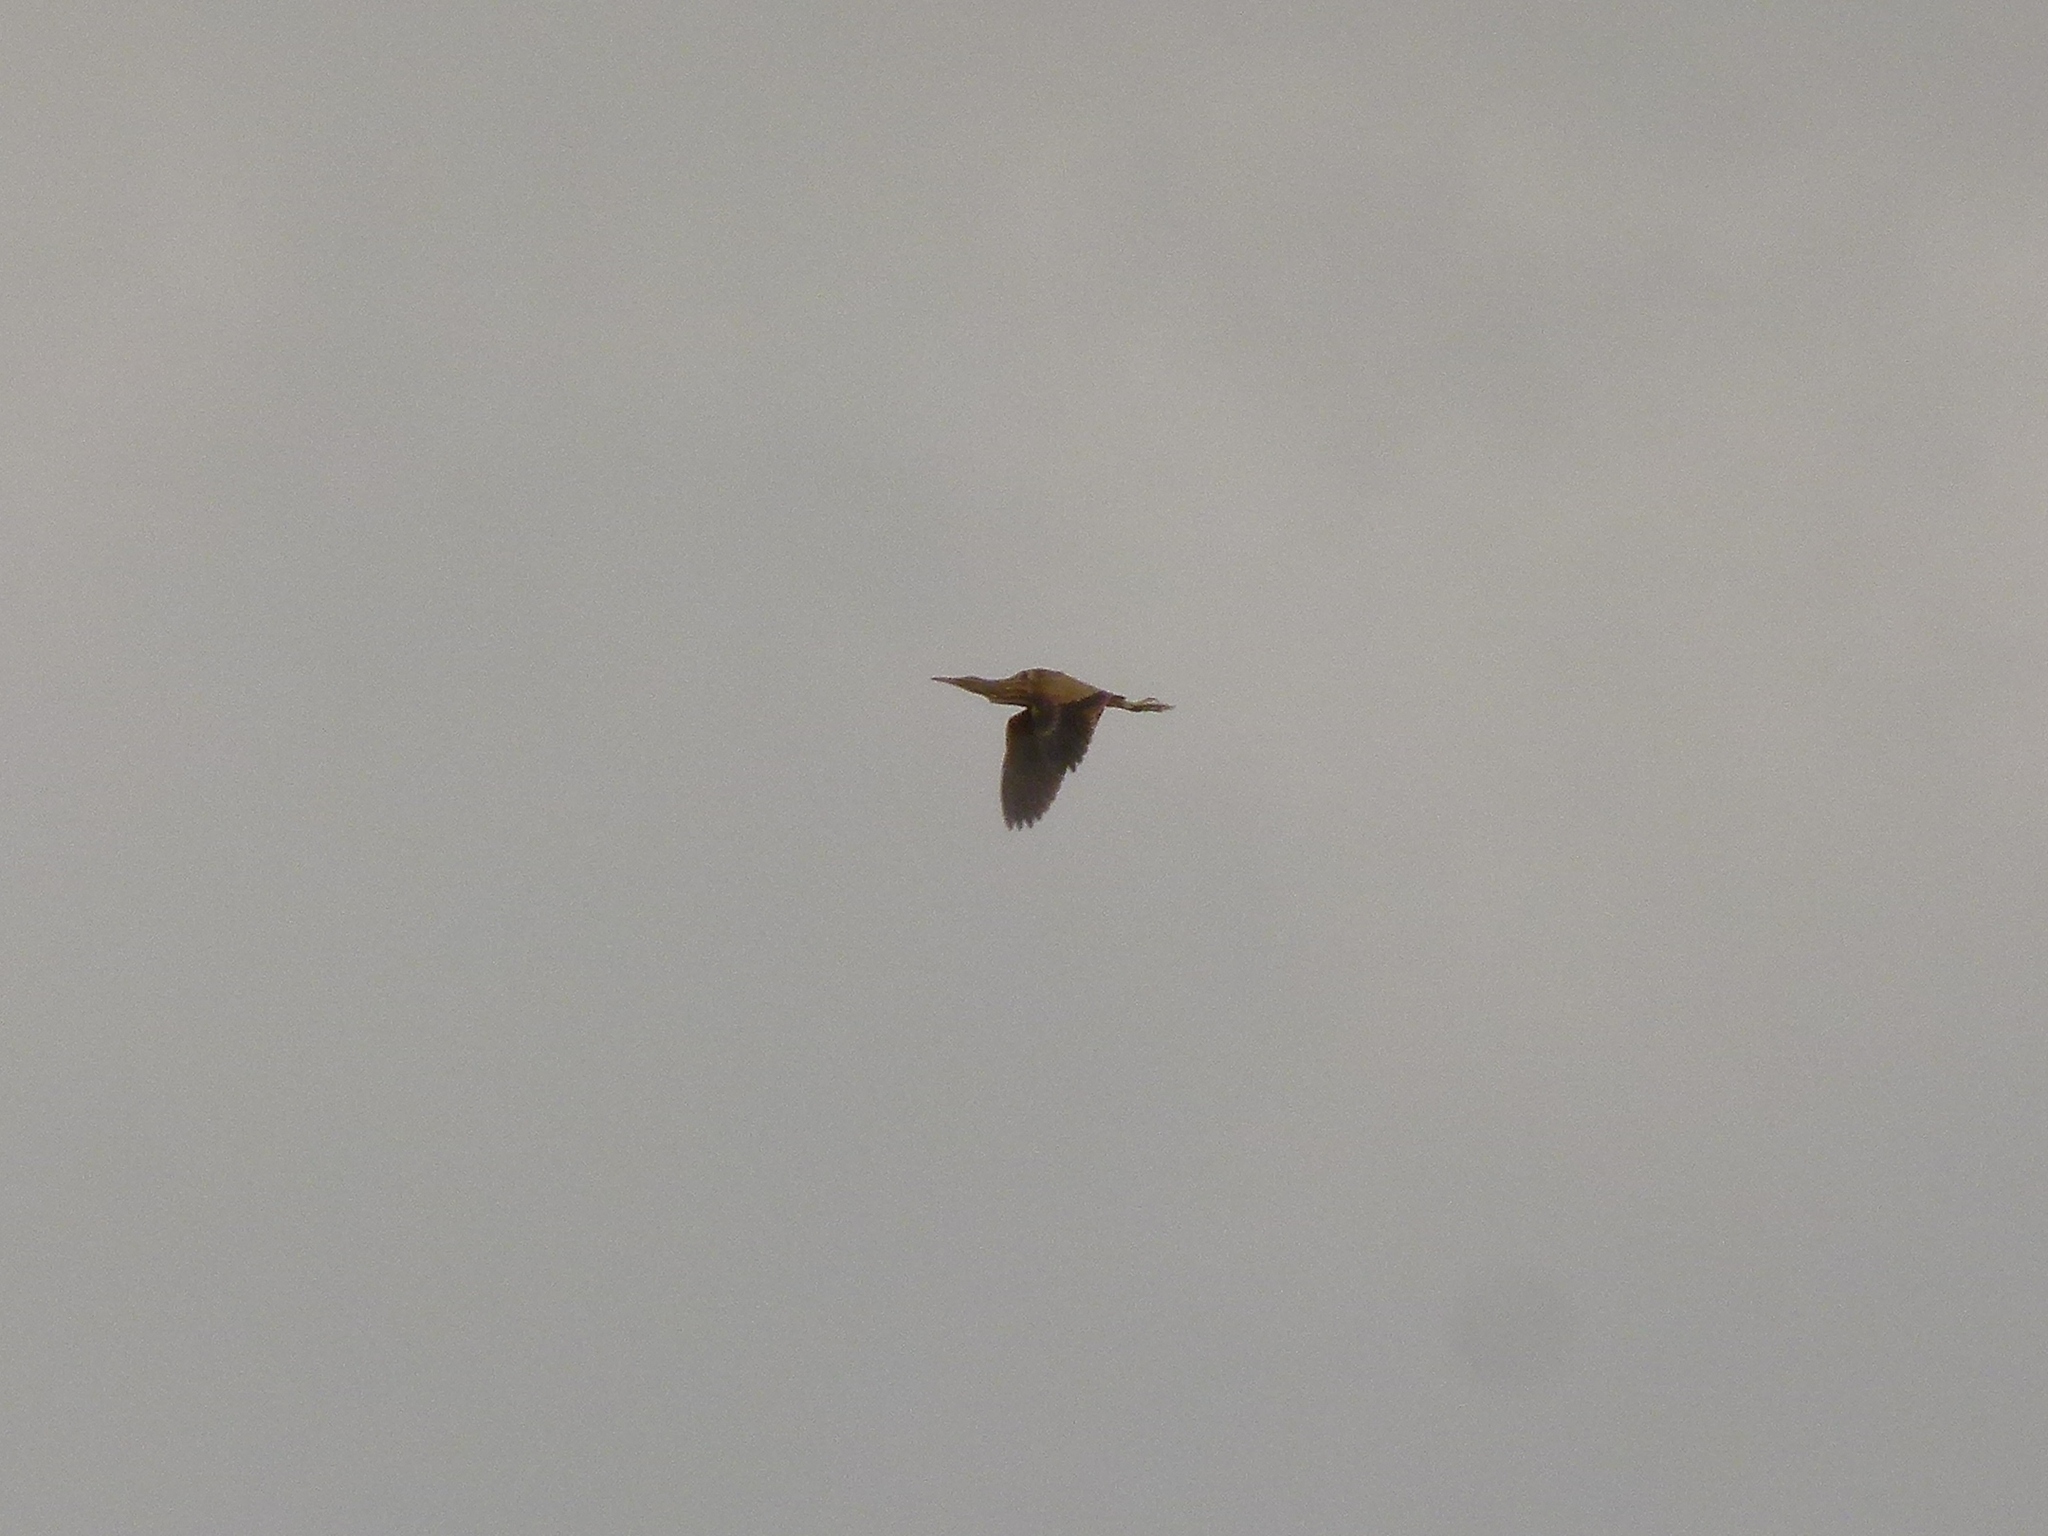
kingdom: Animalia
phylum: Chordata
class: Aves
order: Pelecaniformes
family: Ardeidae
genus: Botaurus
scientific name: Botaurus lentiginosus
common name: American bittern
